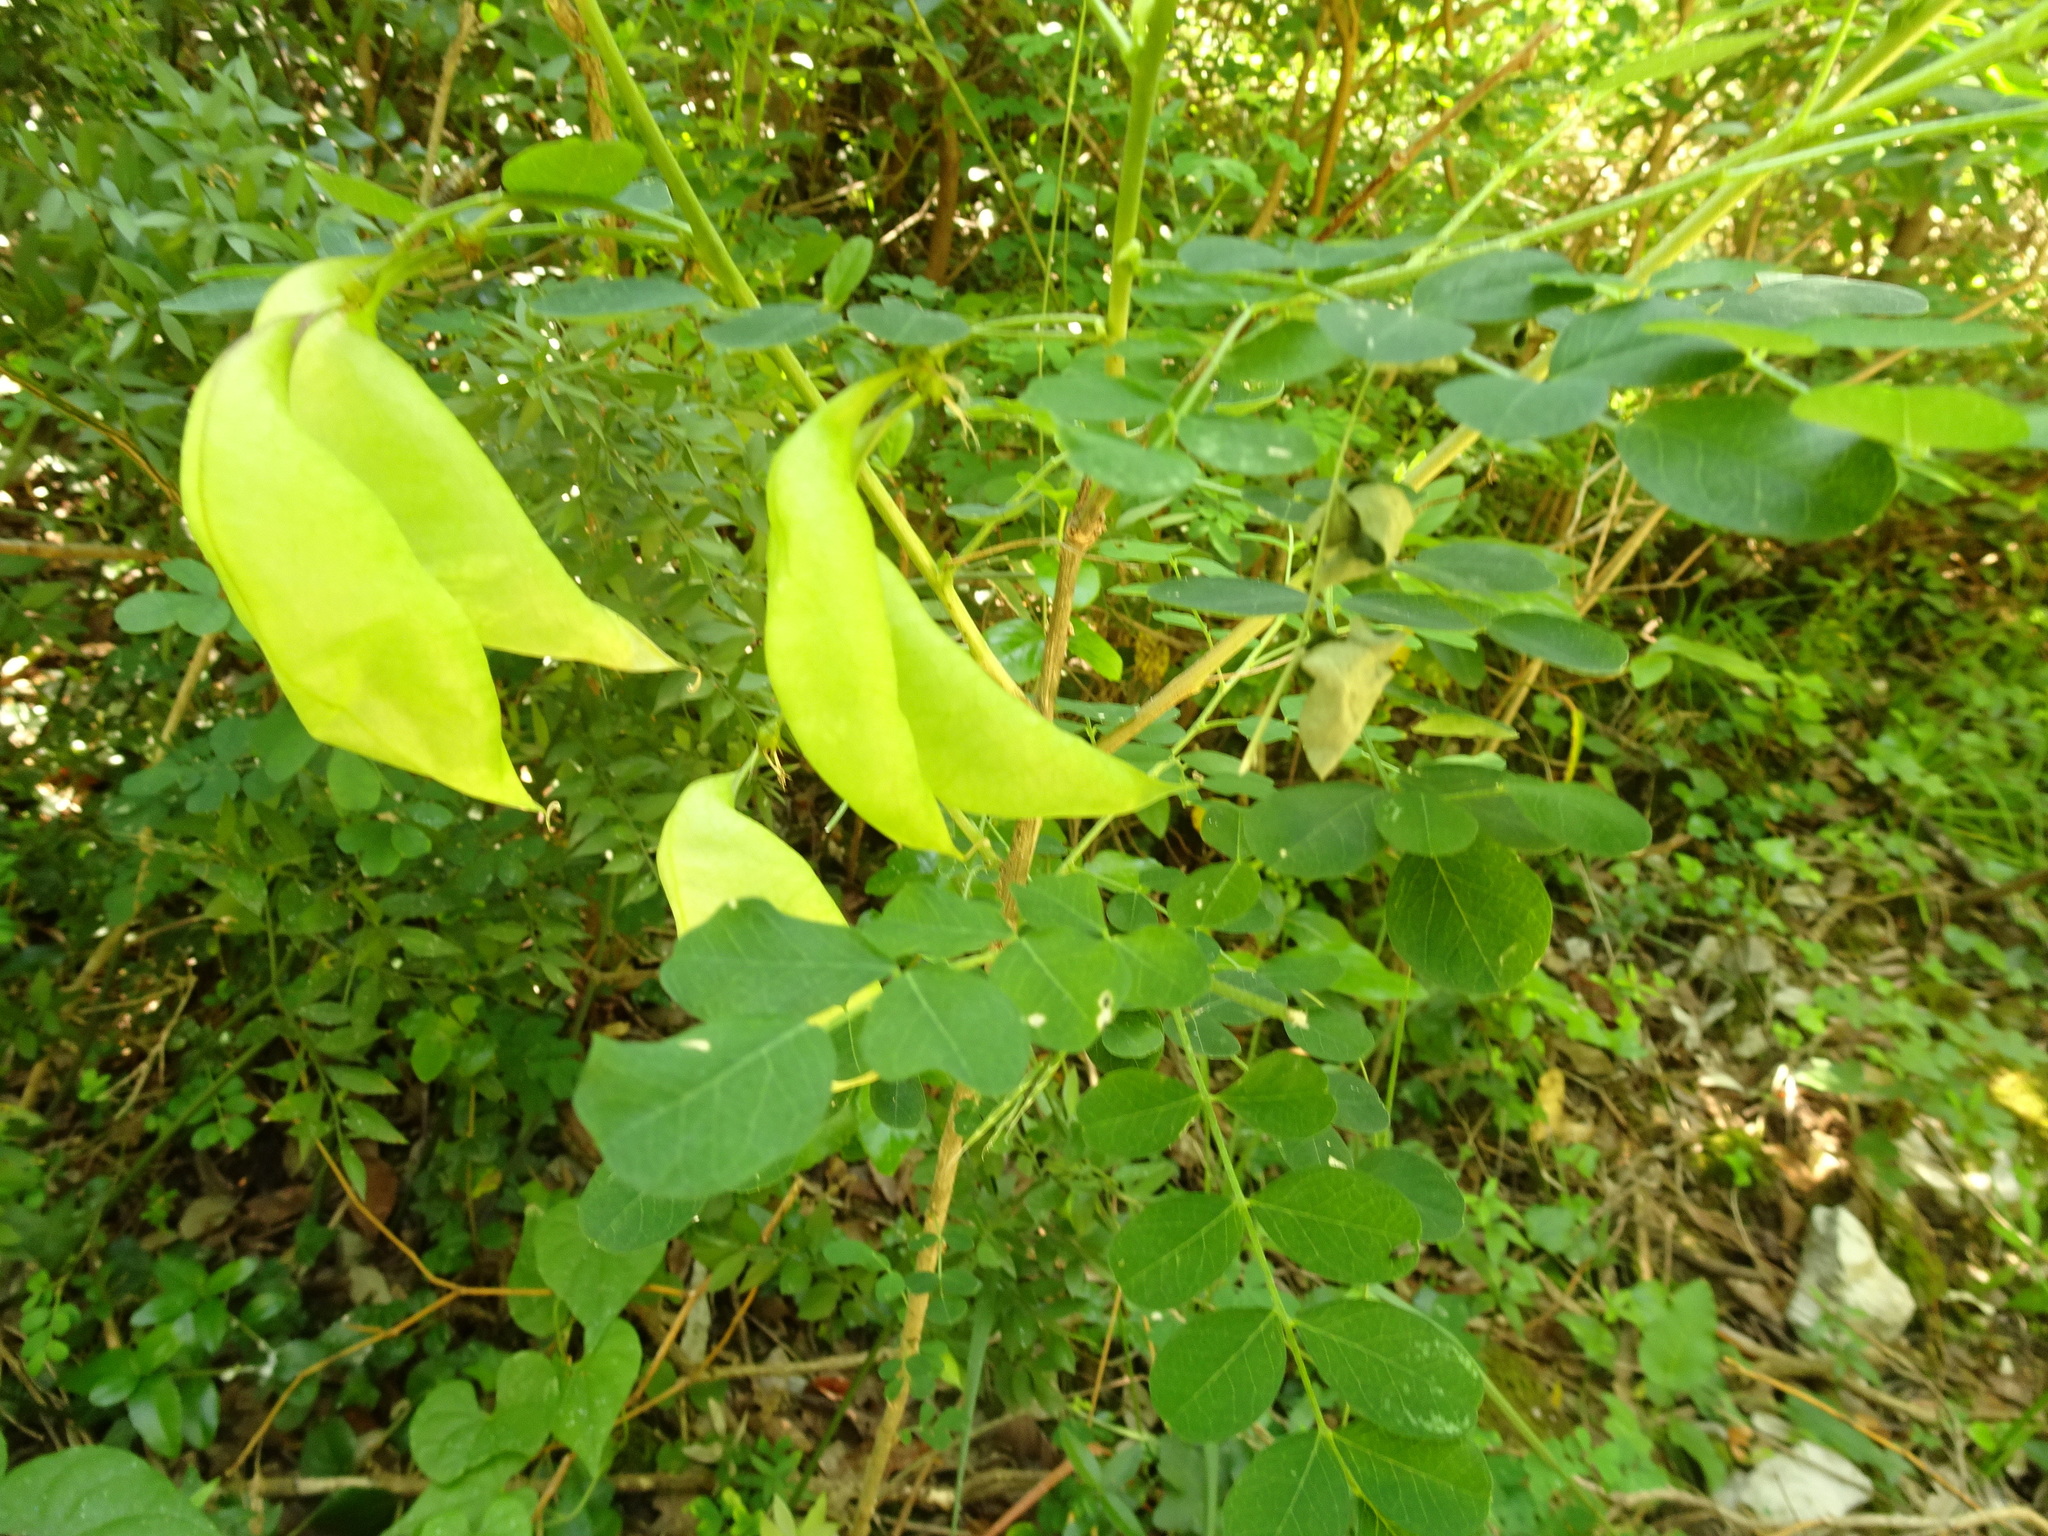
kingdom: Plantae
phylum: Tracheophyta
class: Magnoliopsida
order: Fabales
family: Fabaceae
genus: Colutea
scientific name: Colutea arborescens
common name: Bladder-senna
